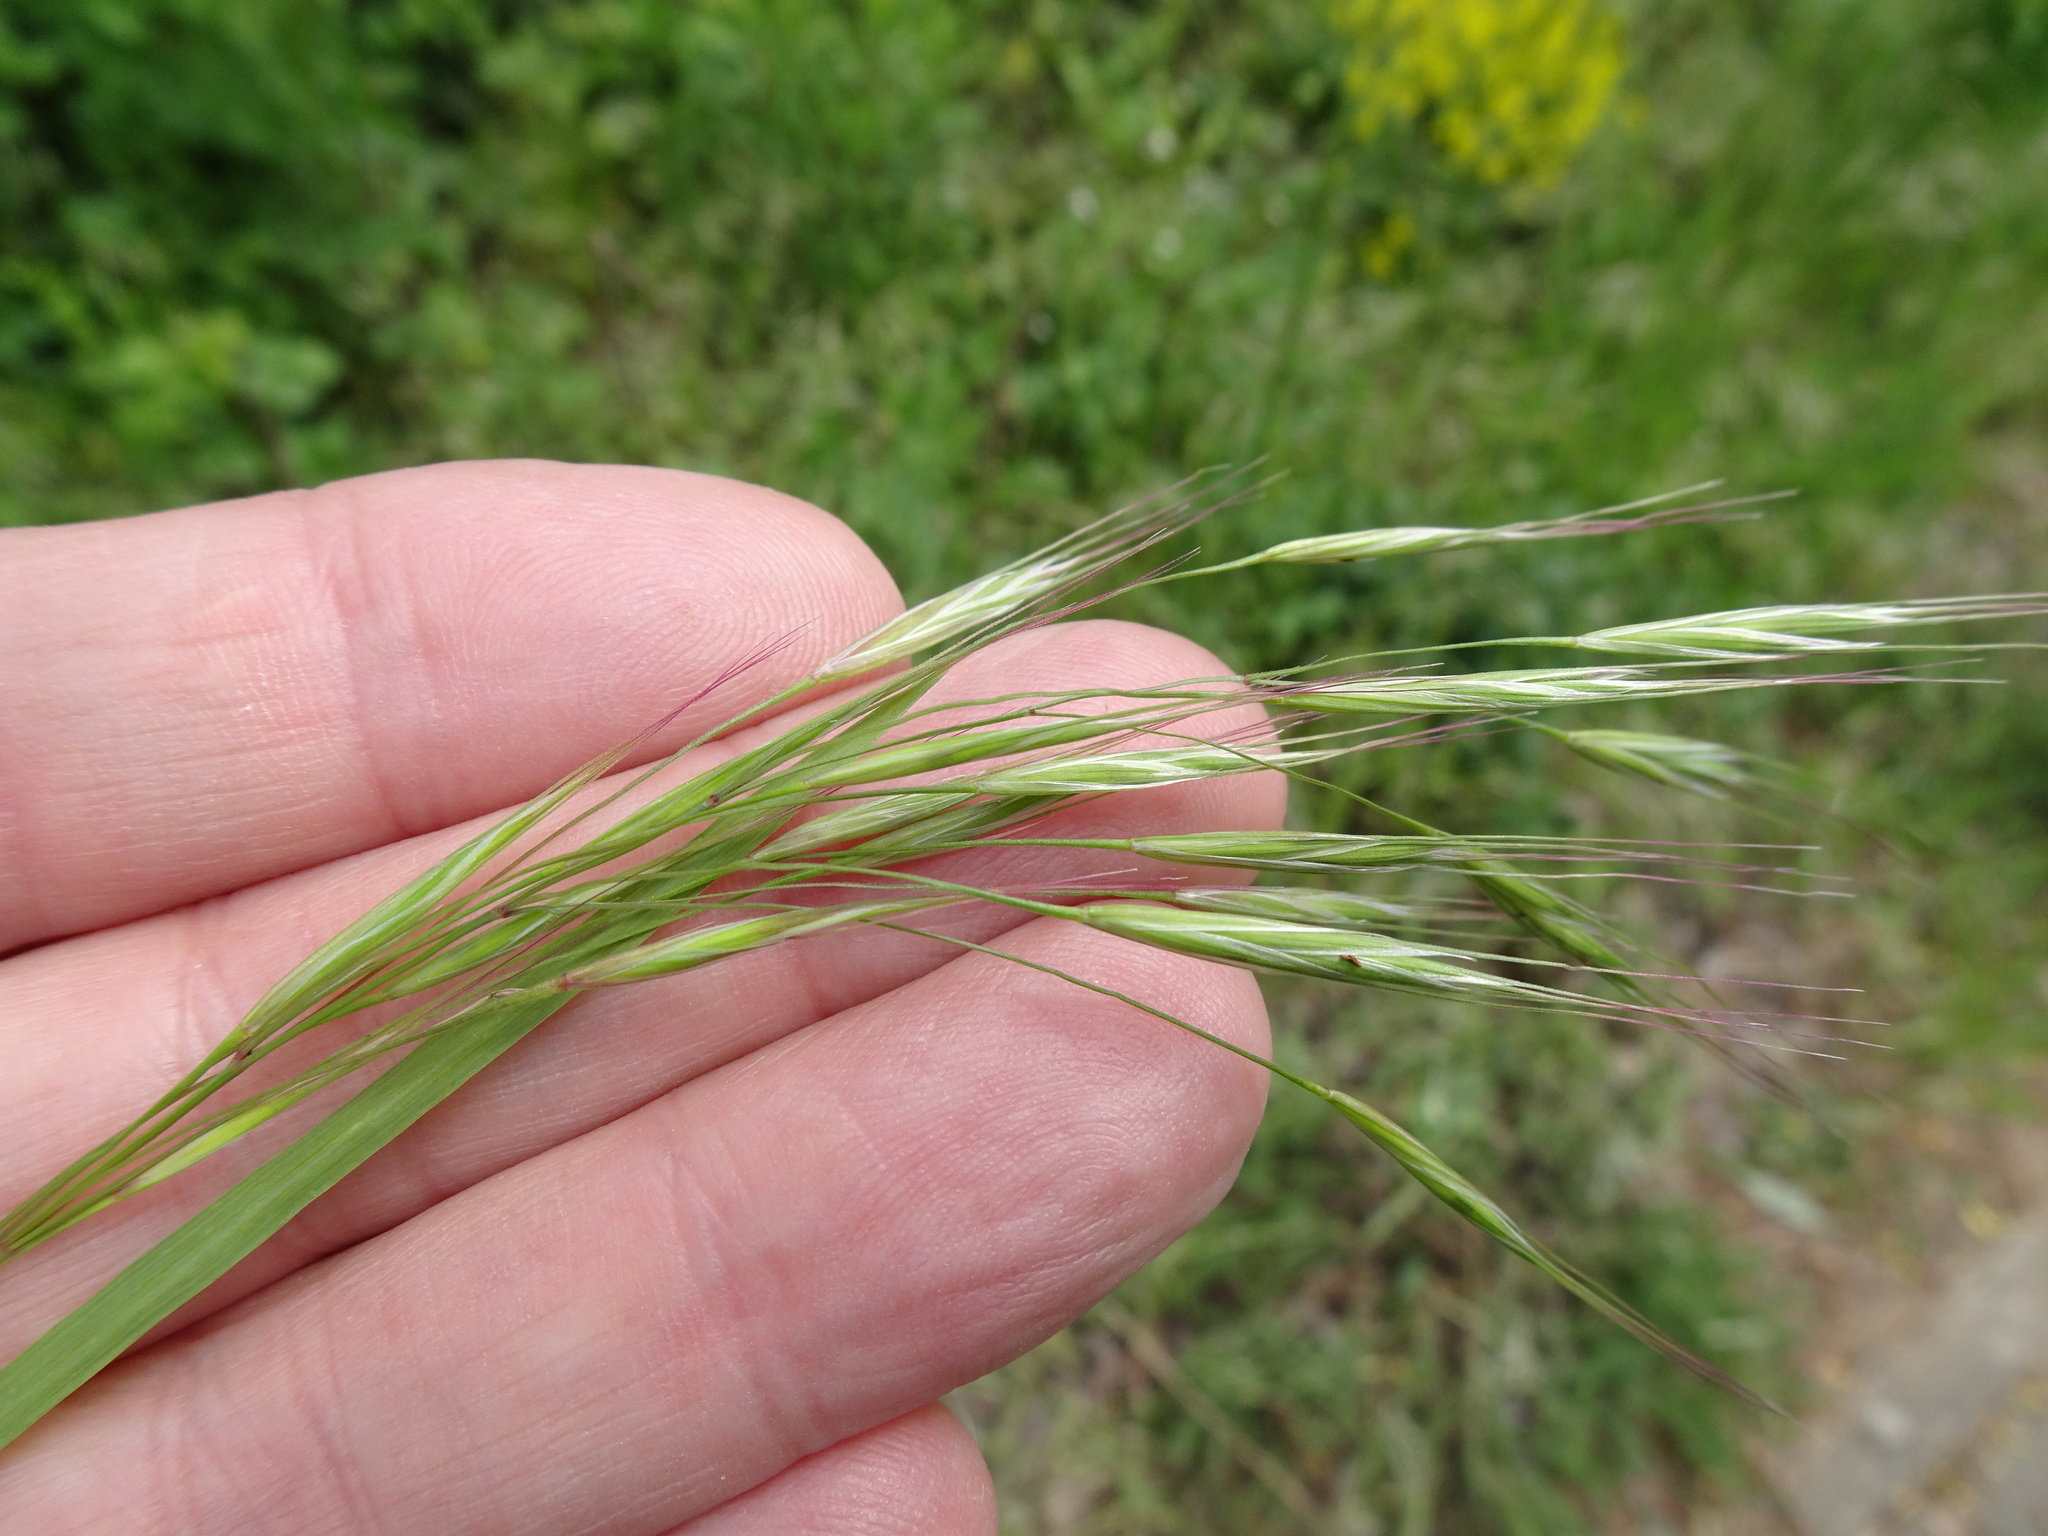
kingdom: Plantae
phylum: Tracheophyta
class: Liliopsida
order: Poales
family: Poaceae
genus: Bromus
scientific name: Bromus sterilis
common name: Poverty brome
